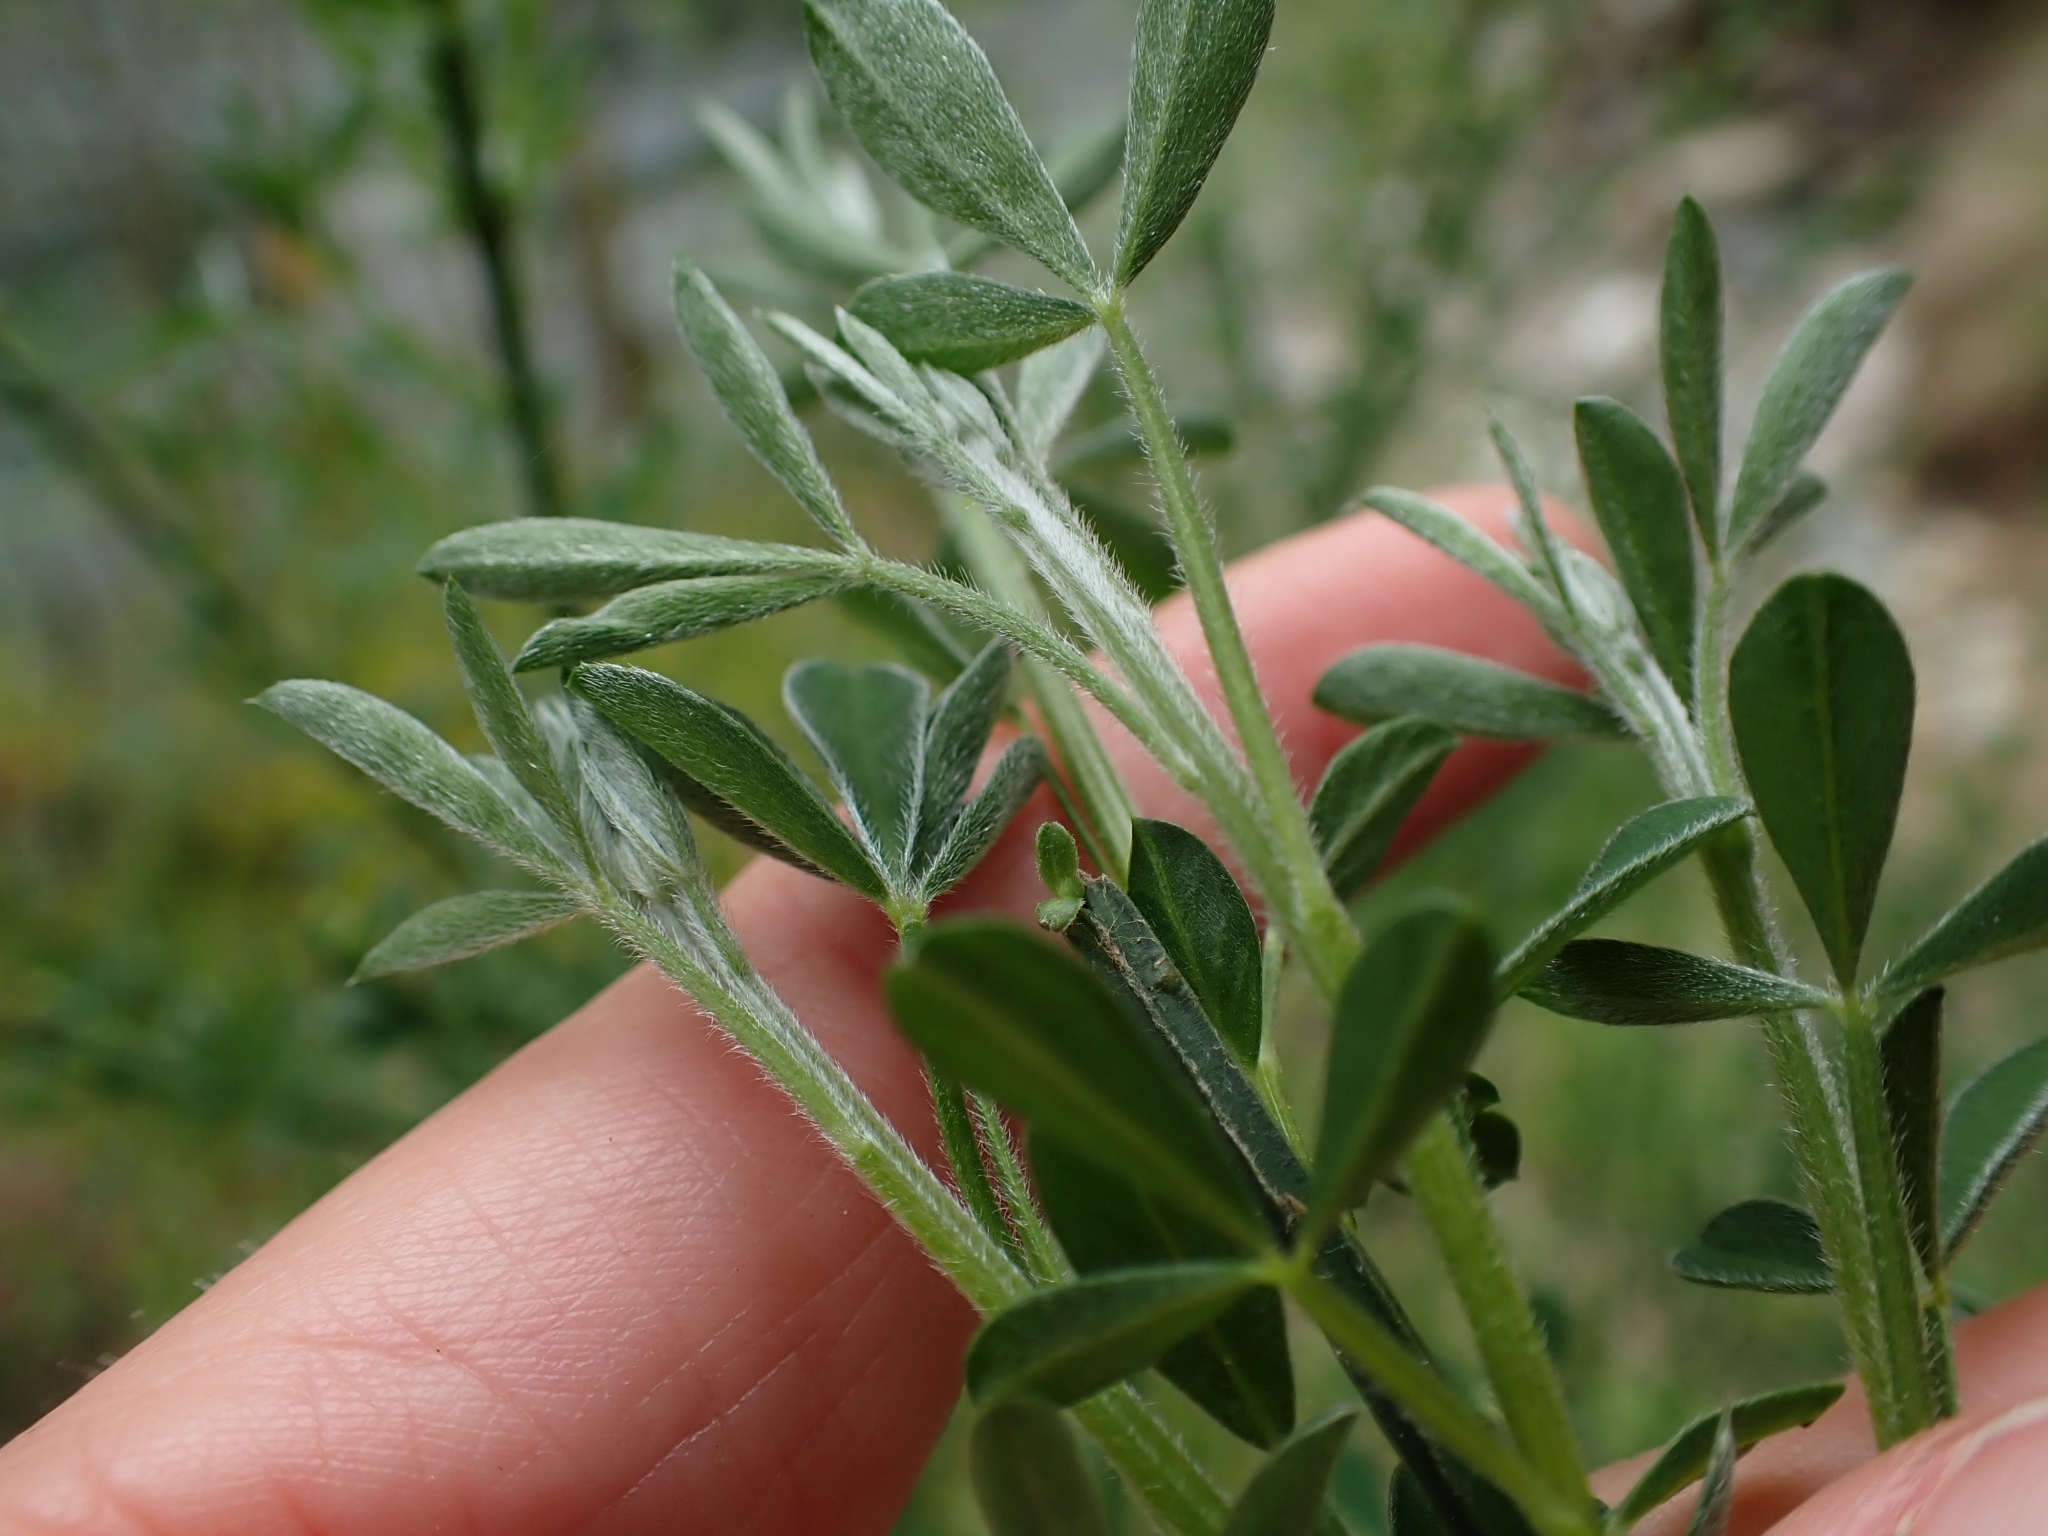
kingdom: Plantae
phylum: Tracheophyta
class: Magnoliopsida
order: Fabales
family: Fabaceae
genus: Cytisus
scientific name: Cytisus scoparius
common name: Scotch broom
